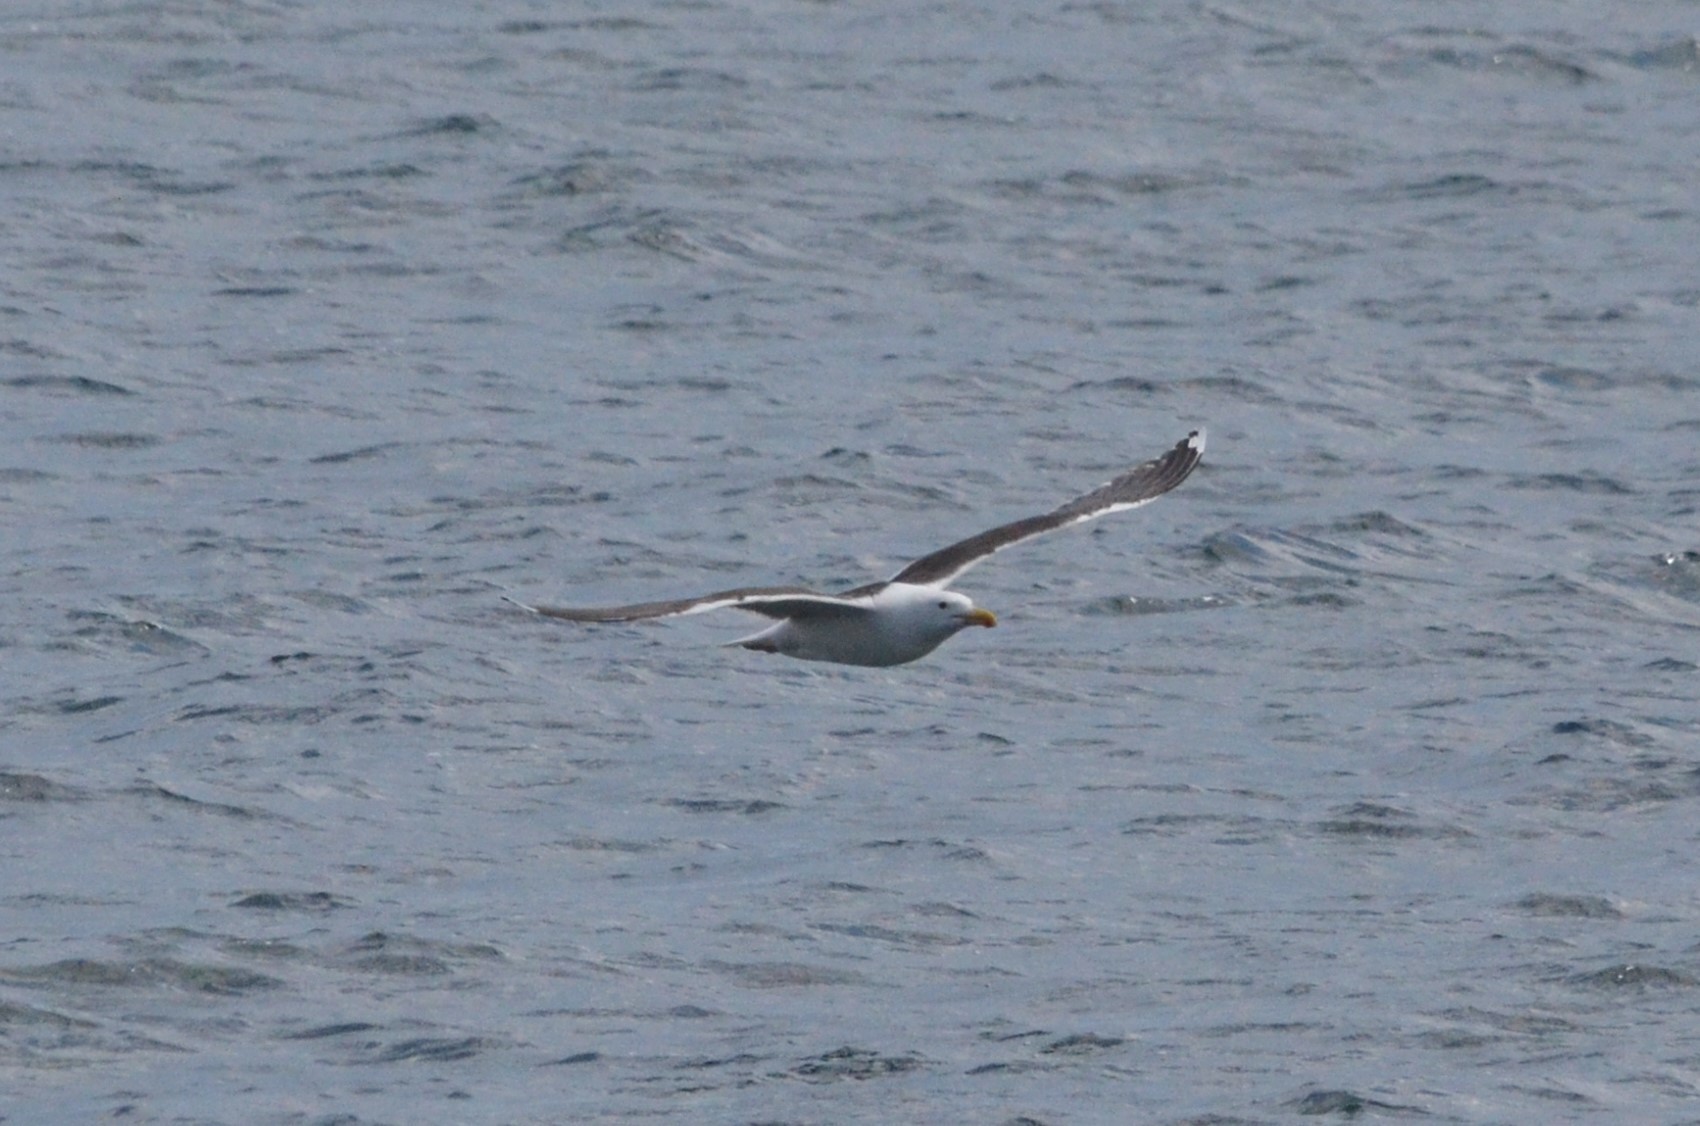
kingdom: Animalia
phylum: Chordata
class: Aves
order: Charadriiformes
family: Laridae
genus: Larus
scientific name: Larus marinus
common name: Great black-backed gull
